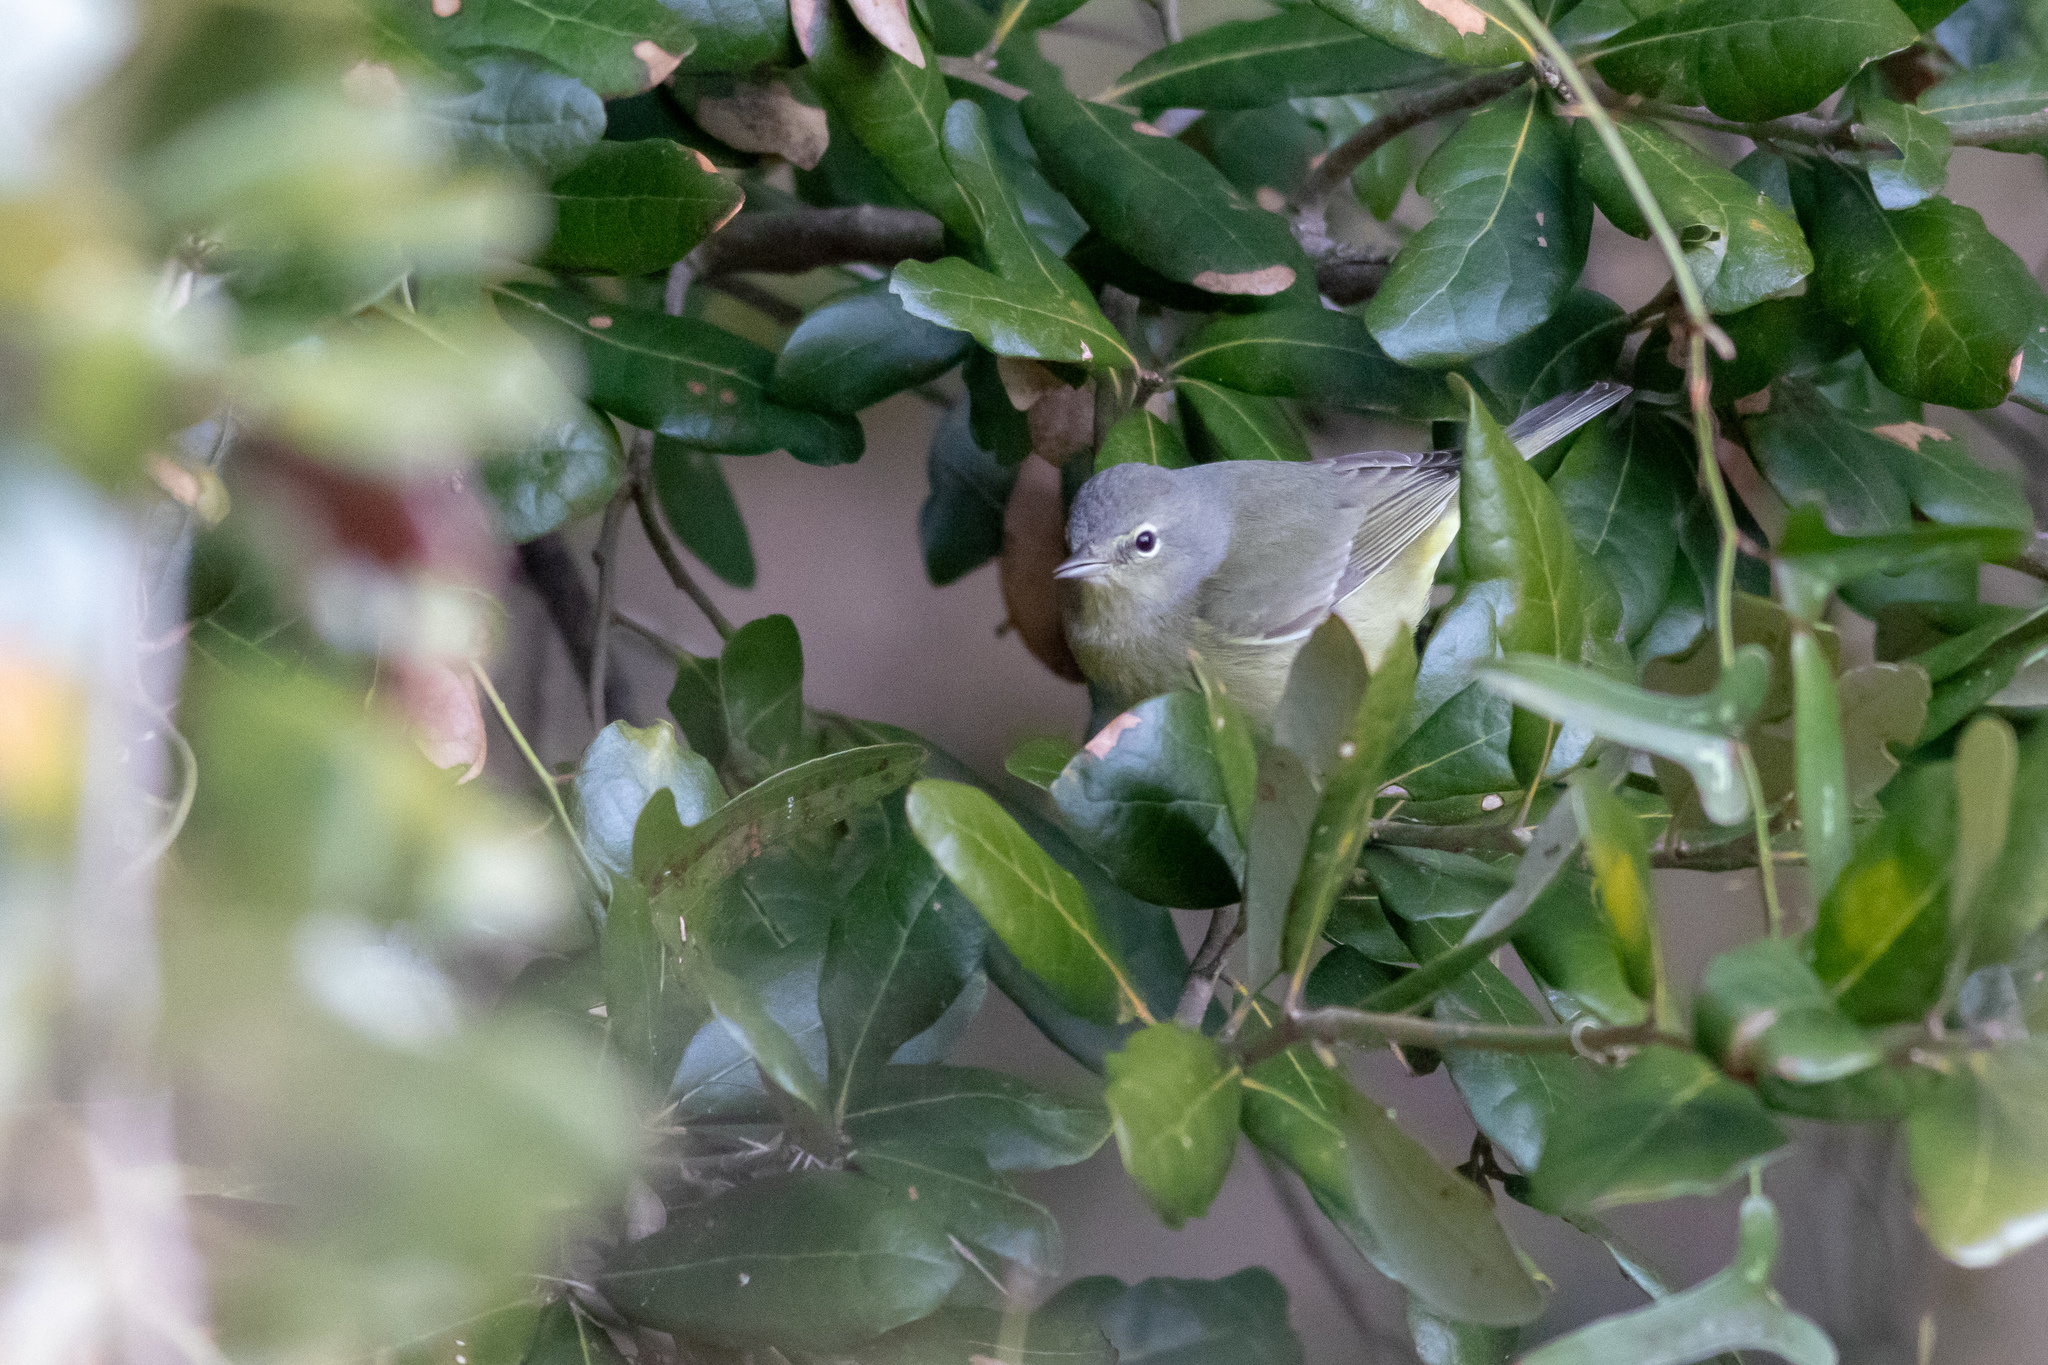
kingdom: Animalia
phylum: Chordata
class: Aves
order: Passeriformes
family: Parulidae
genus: Leiothlypis
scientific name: Leiothlypis celata
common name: Orange-crowned warbler
